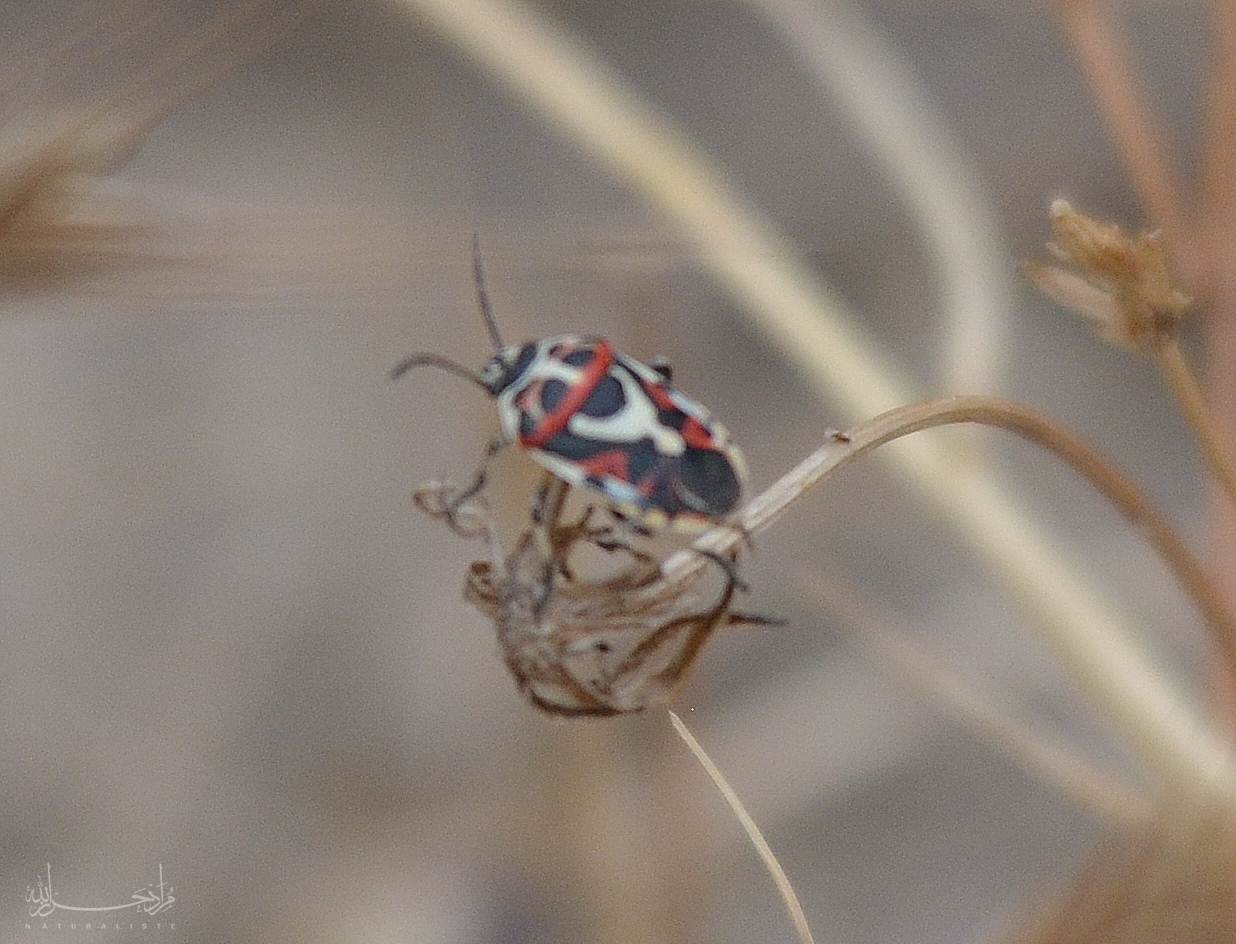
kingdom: Animalia
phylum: Arthropoda
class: Insecta
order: Hemiptera
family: Pentatomidae
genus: Eurydema
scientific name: Eurydema ornata
